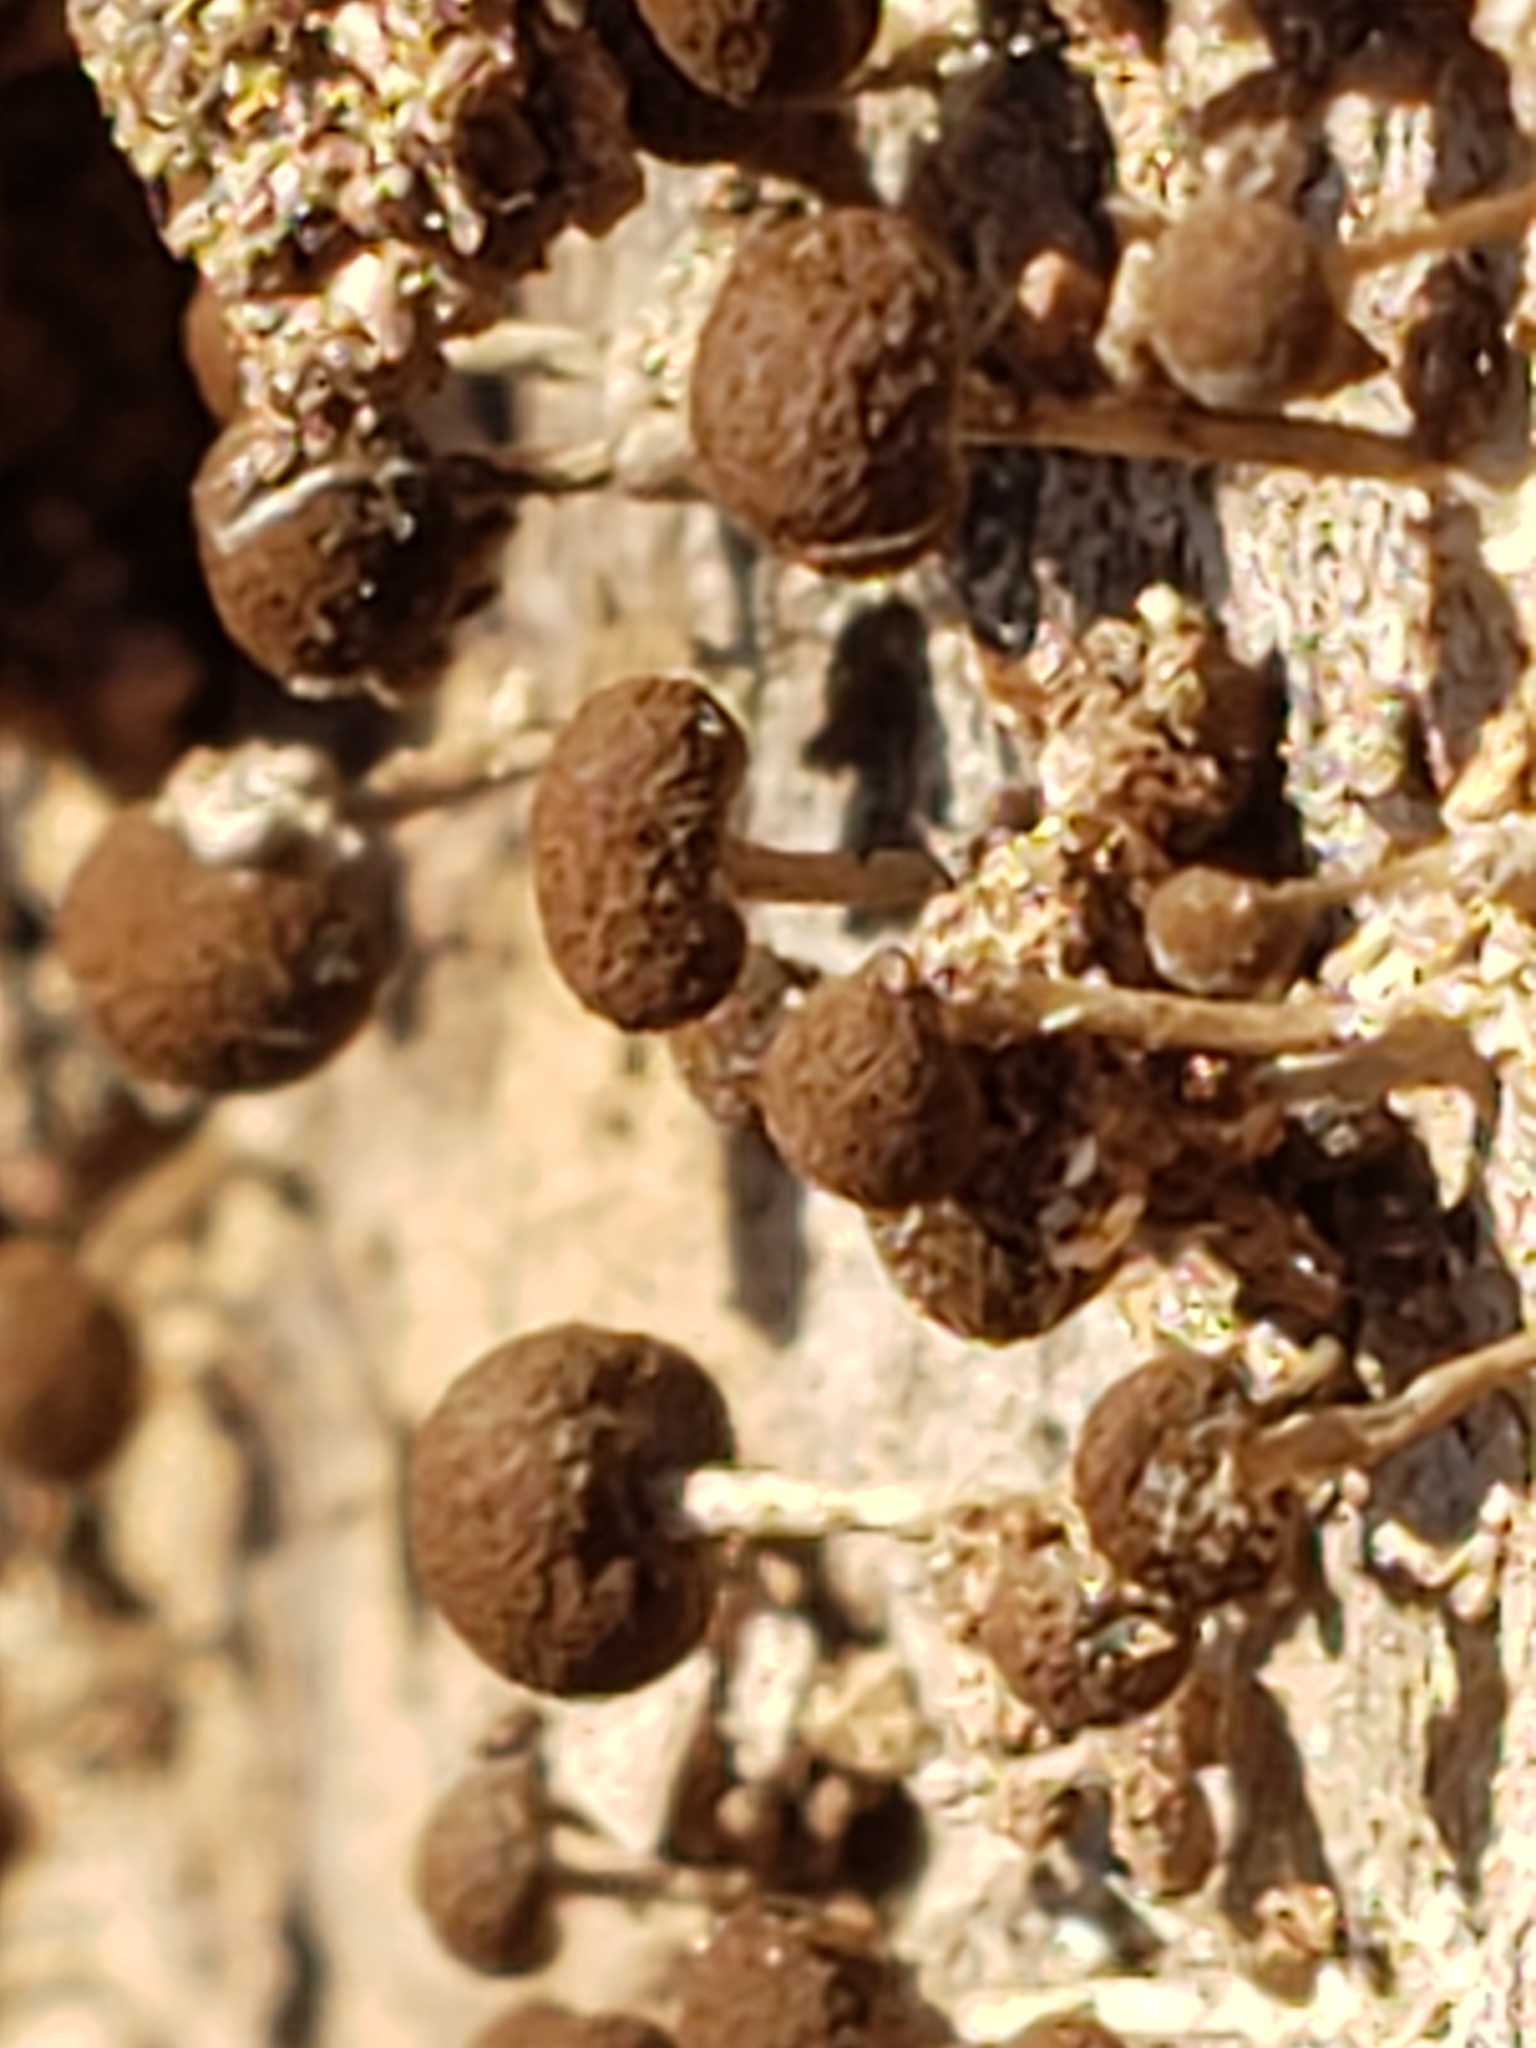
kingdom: Fungi
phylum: Basidiomycota
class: Atractiellomycetes
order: Atractiellales
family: Phleogenaceae
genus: Phleogena
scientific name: Phleogena faginea
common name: Fenugreek stalkball
